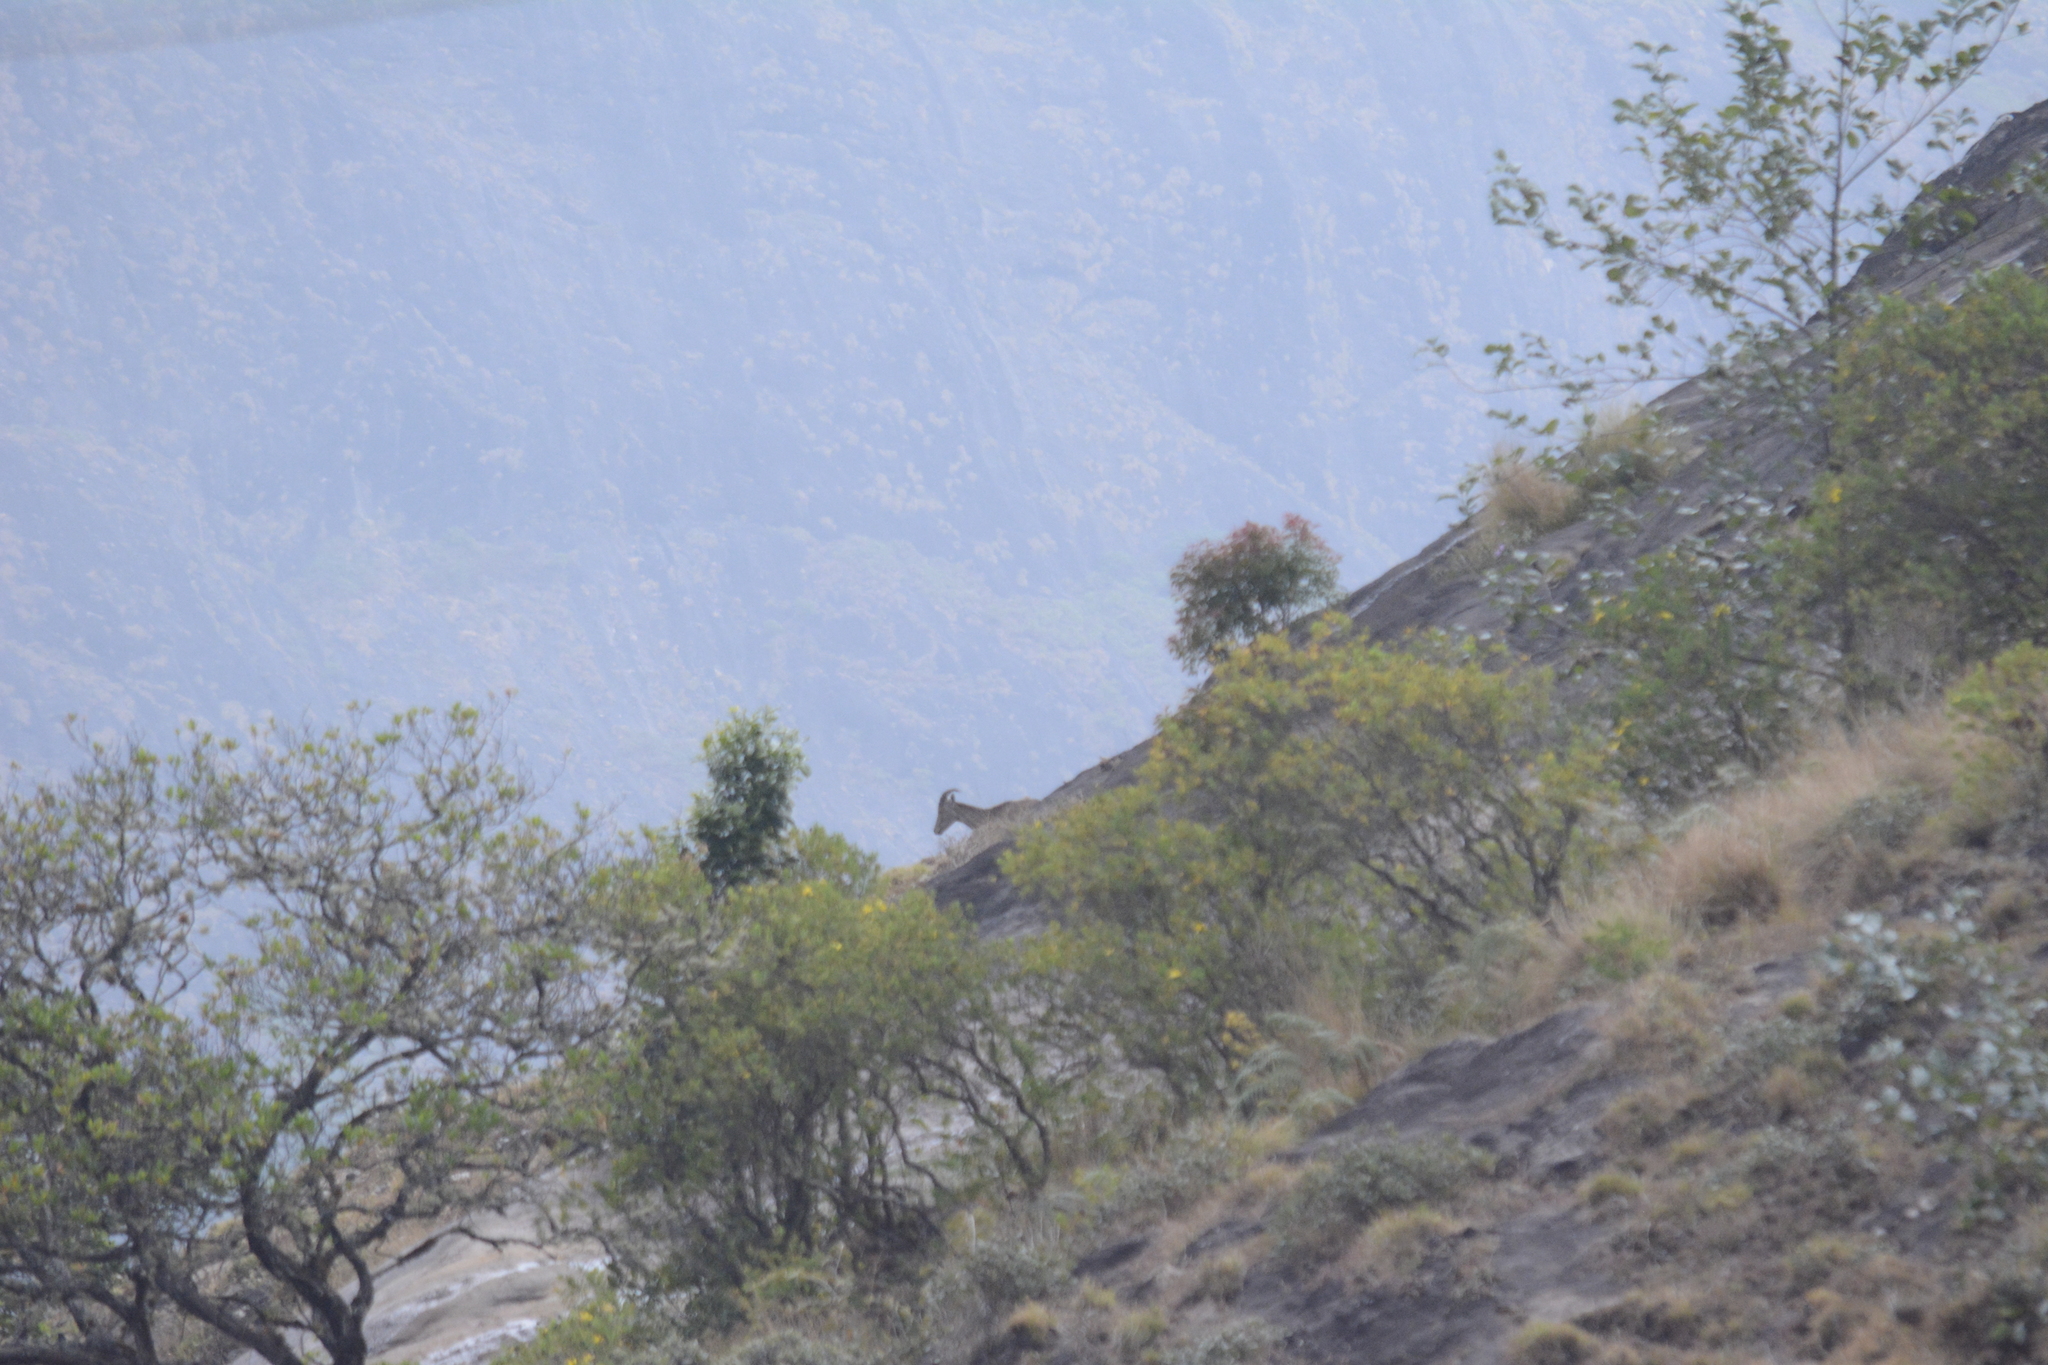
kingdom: Animalia
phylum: Chordata
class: Mammalia
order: Artiodactyla
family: Bovidae
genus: Hemitragus
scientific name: Hemitragus hylocrius
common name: Nilgiri tahr
